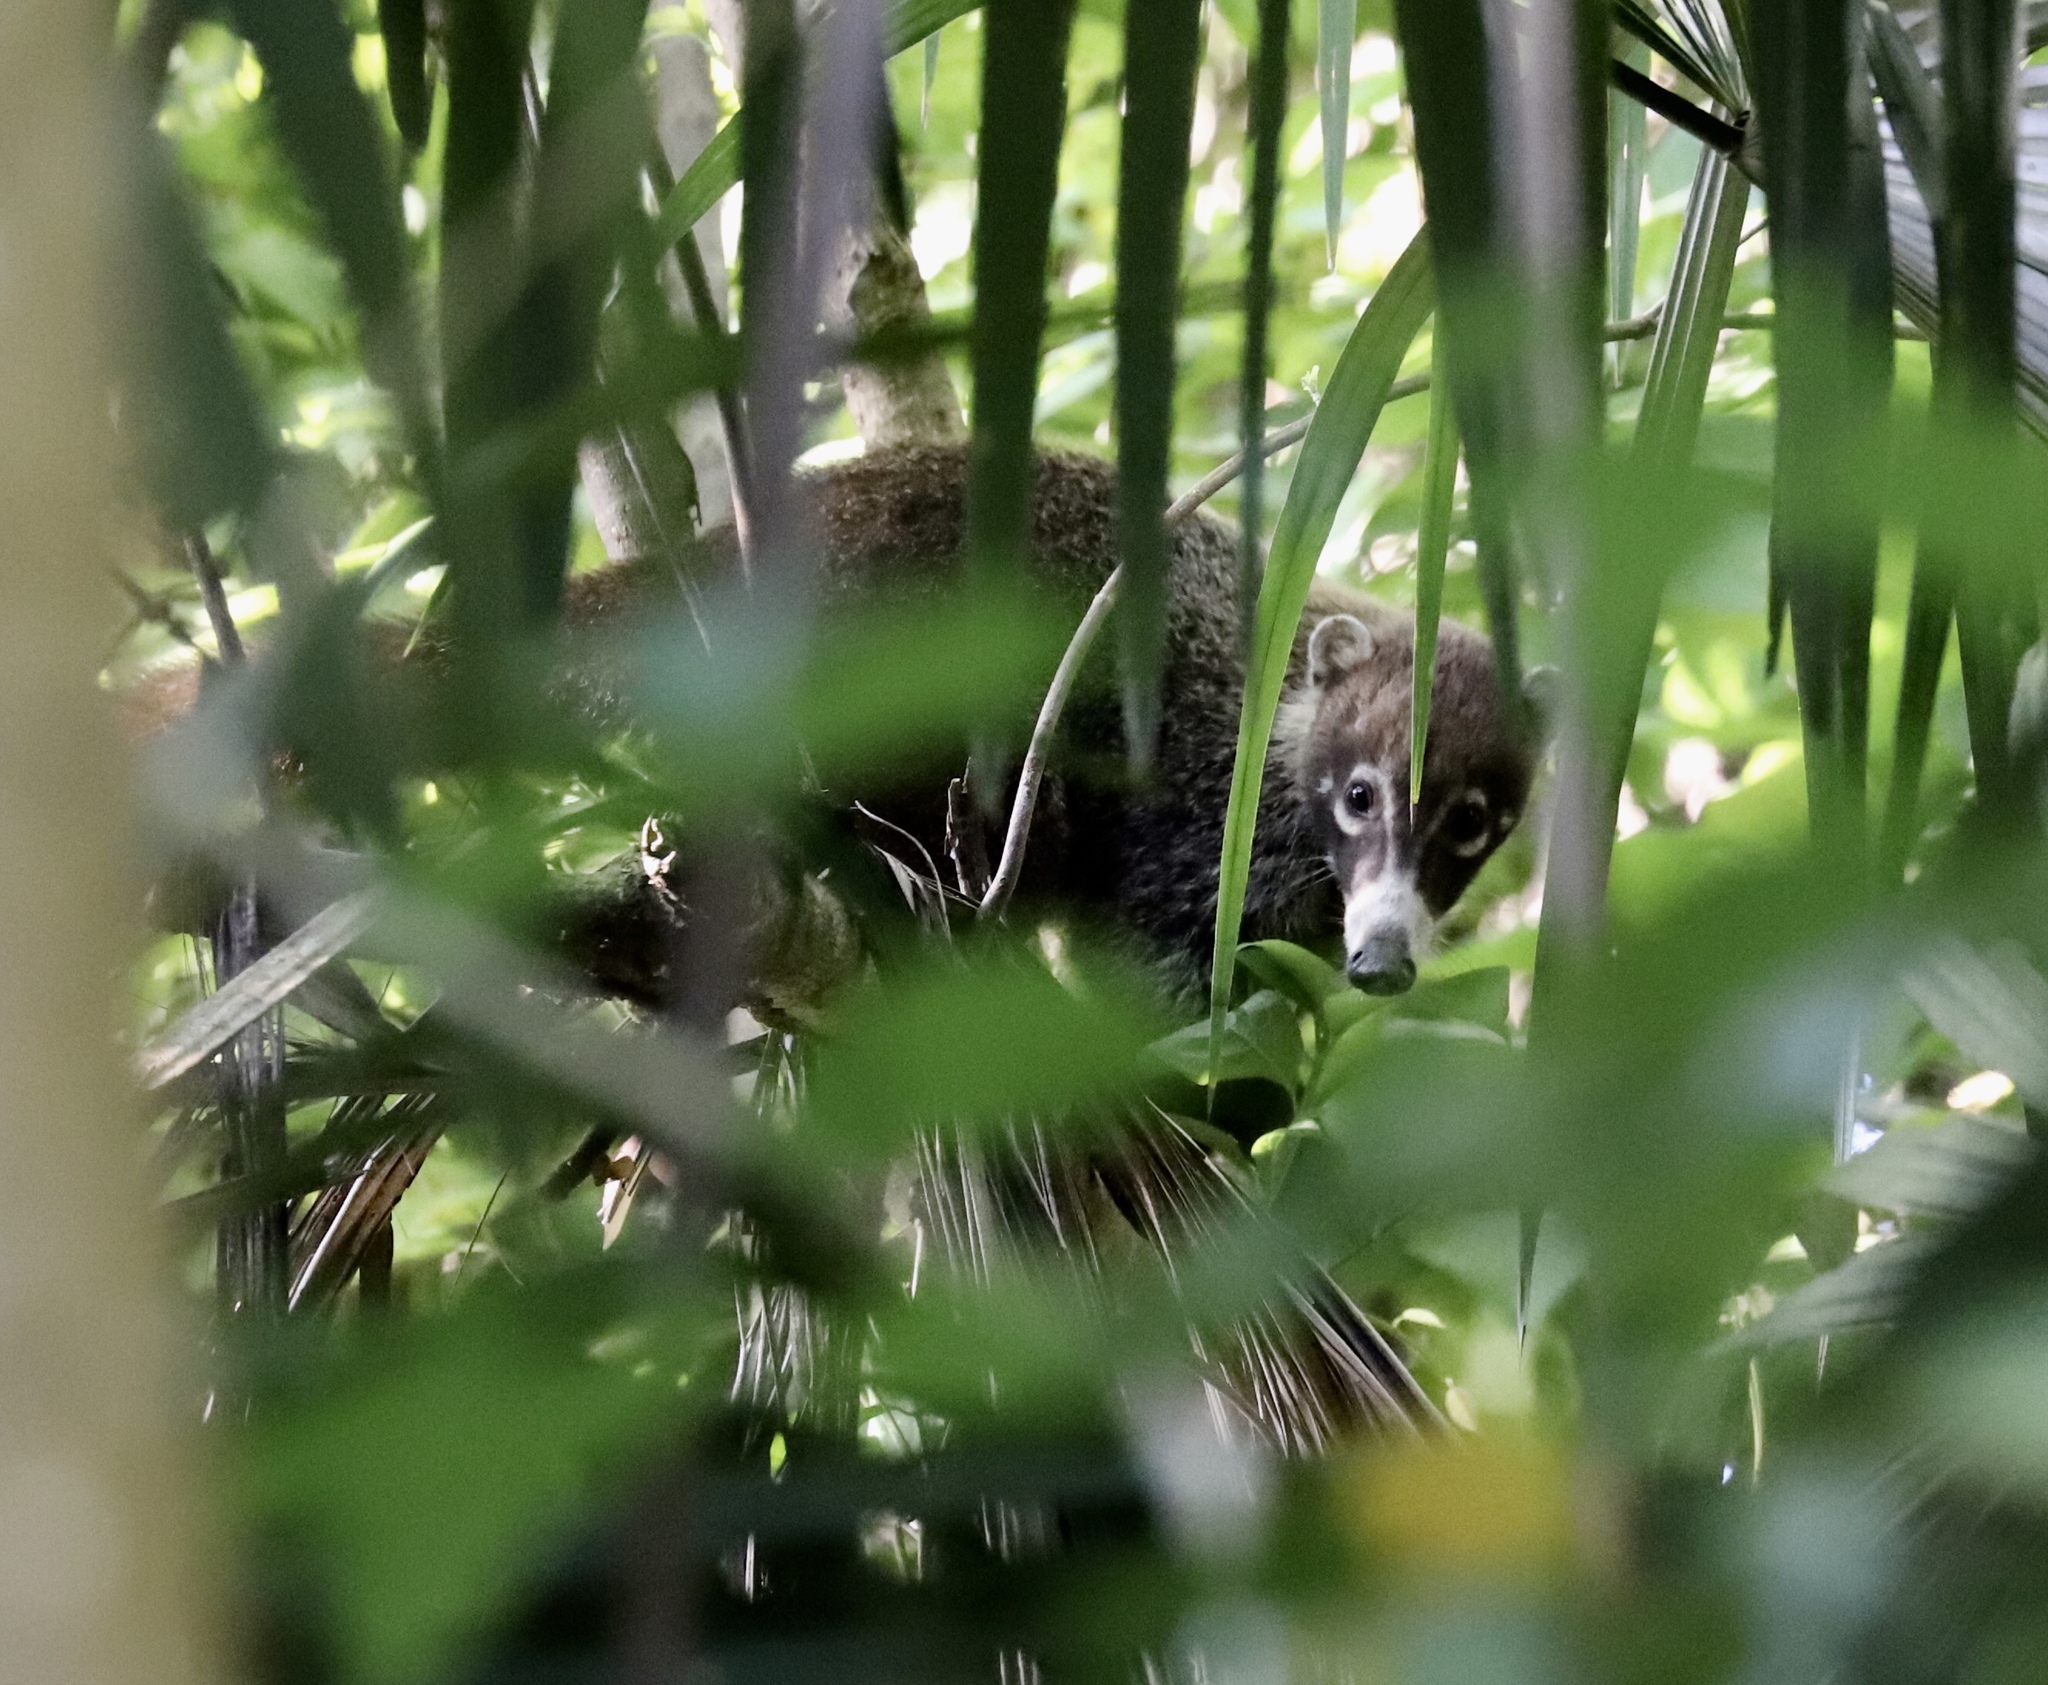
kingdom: Animalia
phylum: Chordata
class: Mammalia
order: Carnivora
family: Procyonidae
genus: Nasua
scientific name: Nasua narica
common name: White-nosed coati
